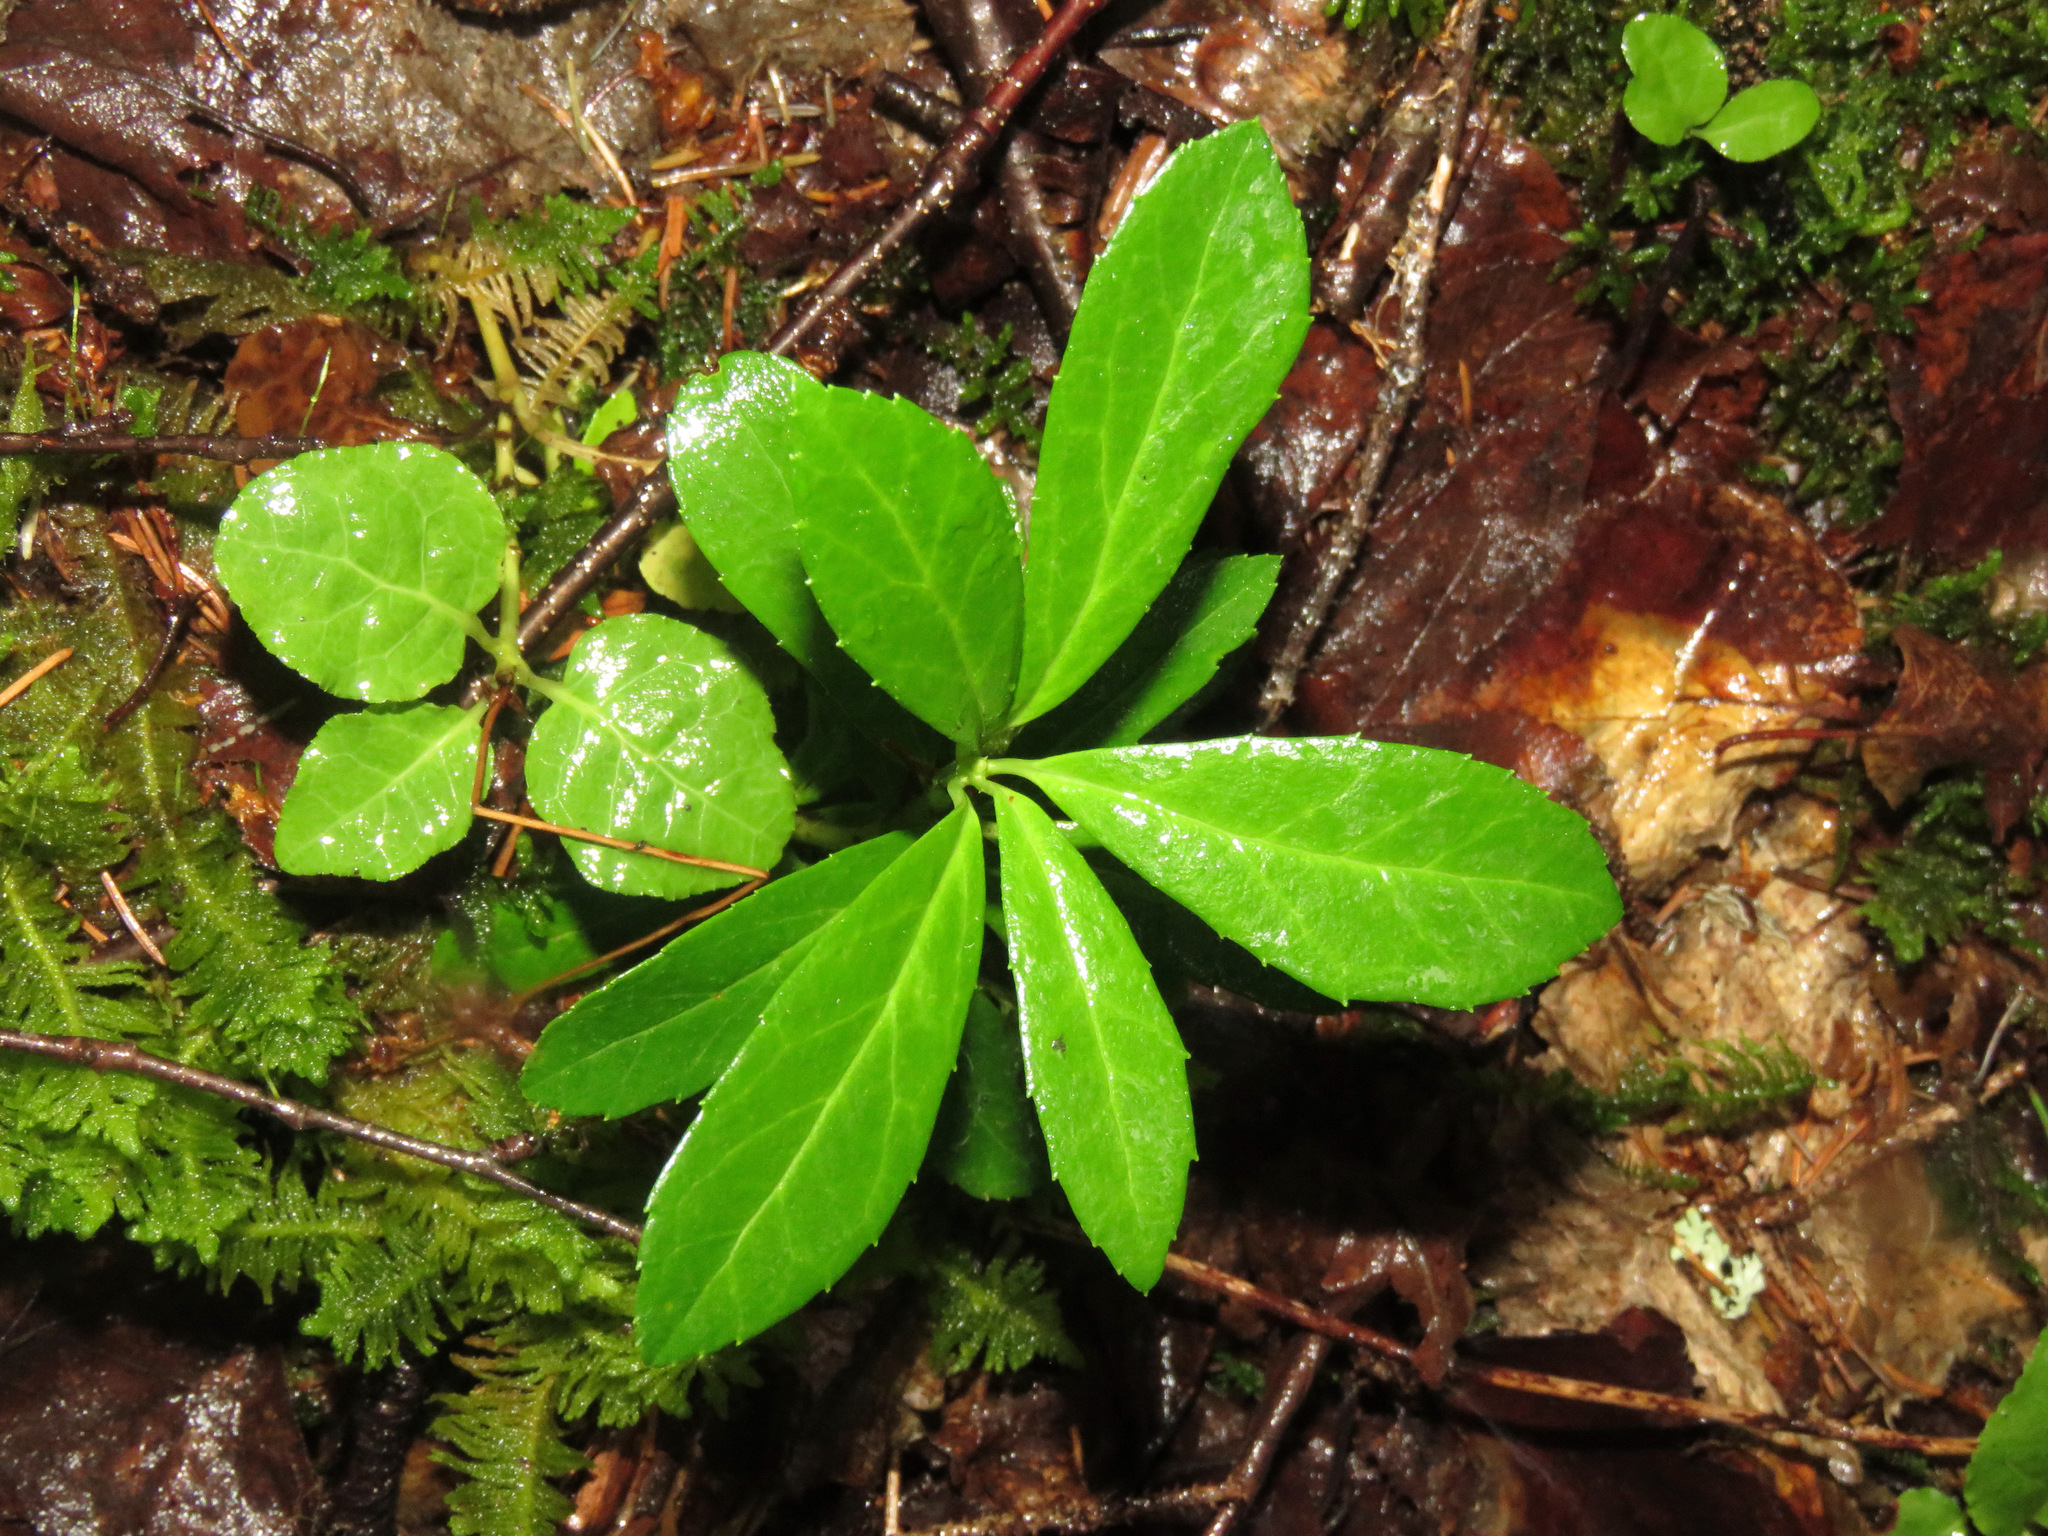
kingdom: Plantae
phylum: Tracheophyta
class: Magnoliopsida
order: Ericales
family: Ericaceae
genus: Chimaphila
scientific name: Chimaphila umbellata
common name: Pipsissewa
